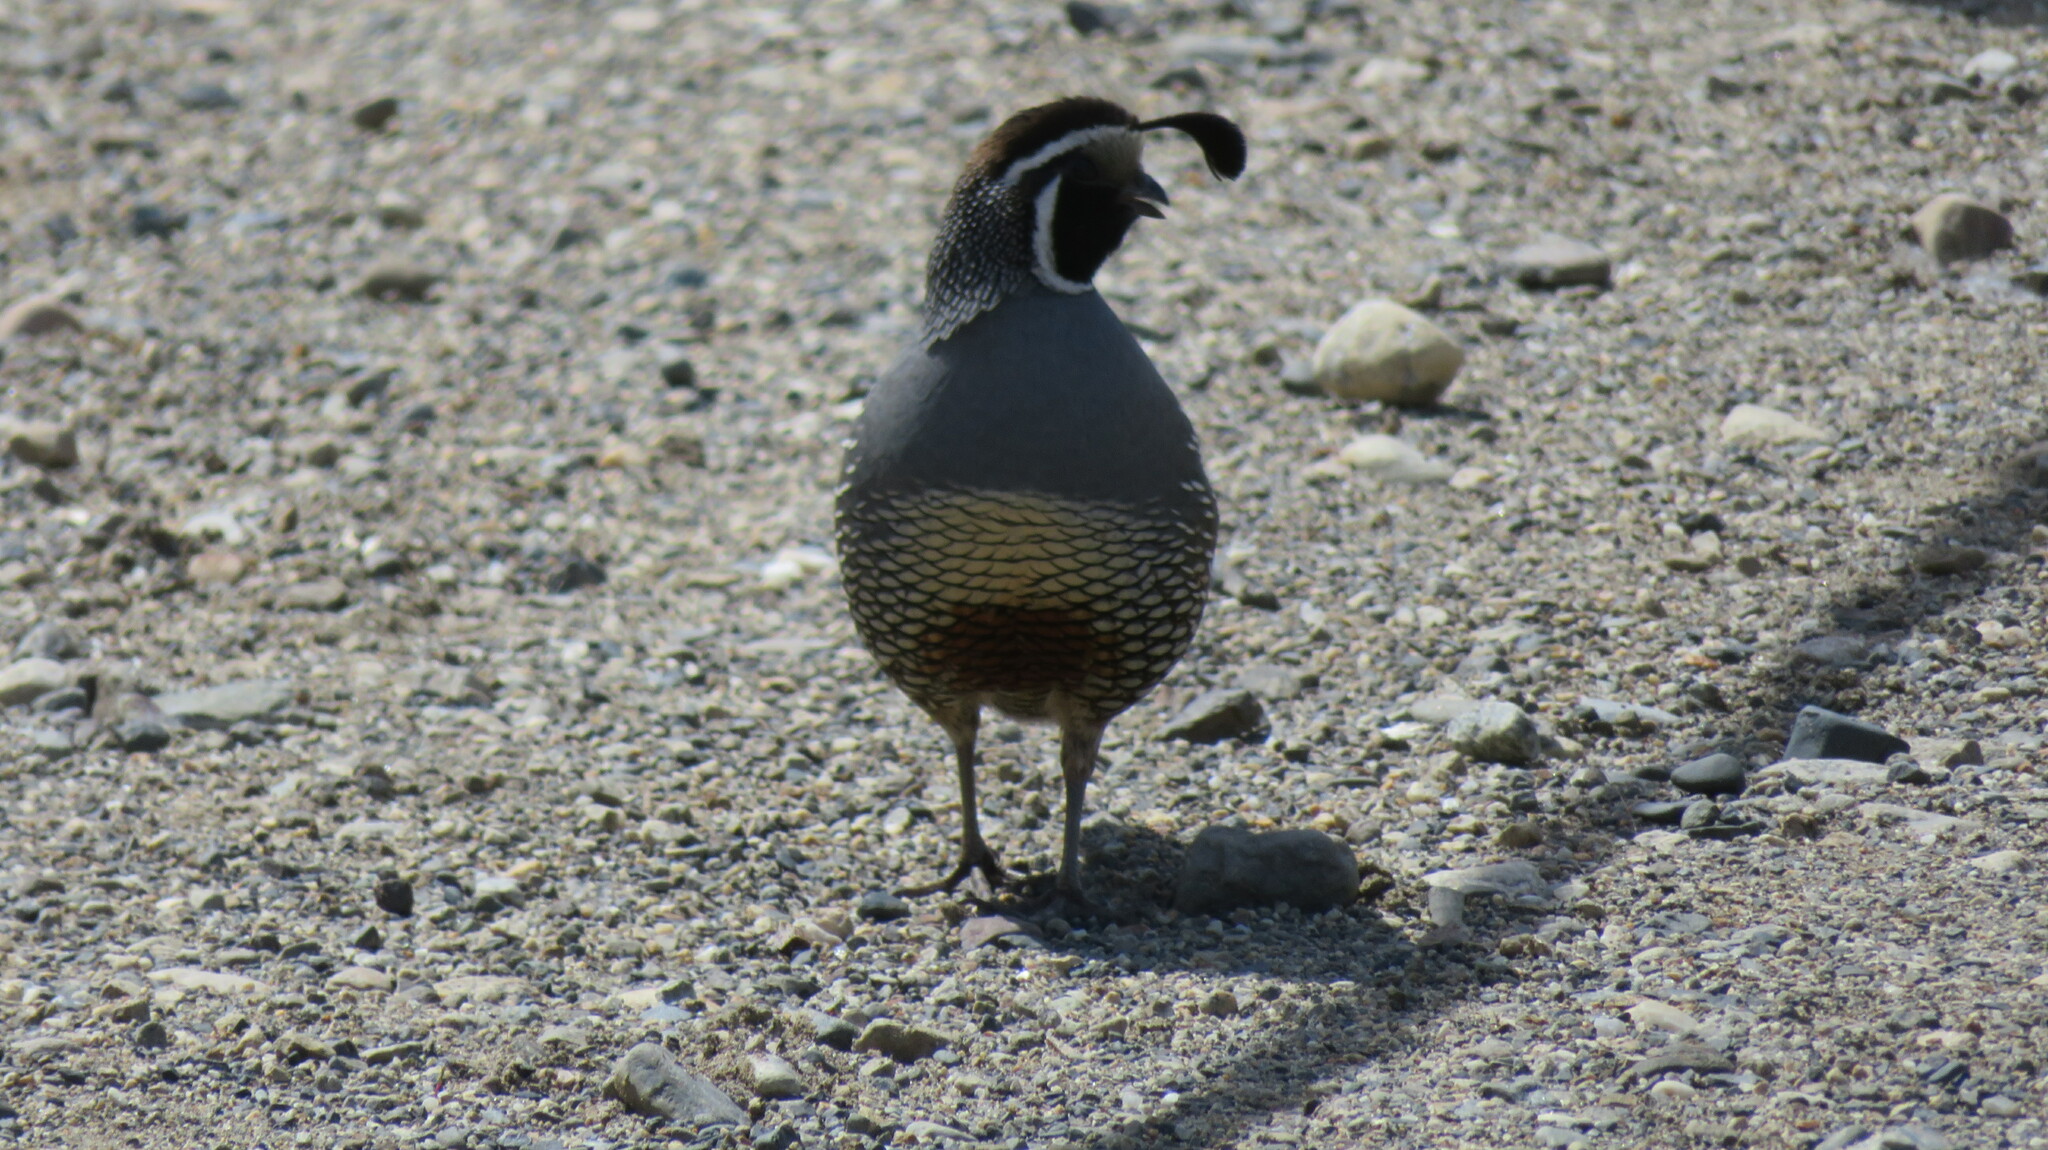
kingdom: Animalia
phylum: Chordata
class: Aves
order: Galliformes
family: Odontophoridae
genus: Callipepla
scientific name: Callipepla californica
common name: California quail
